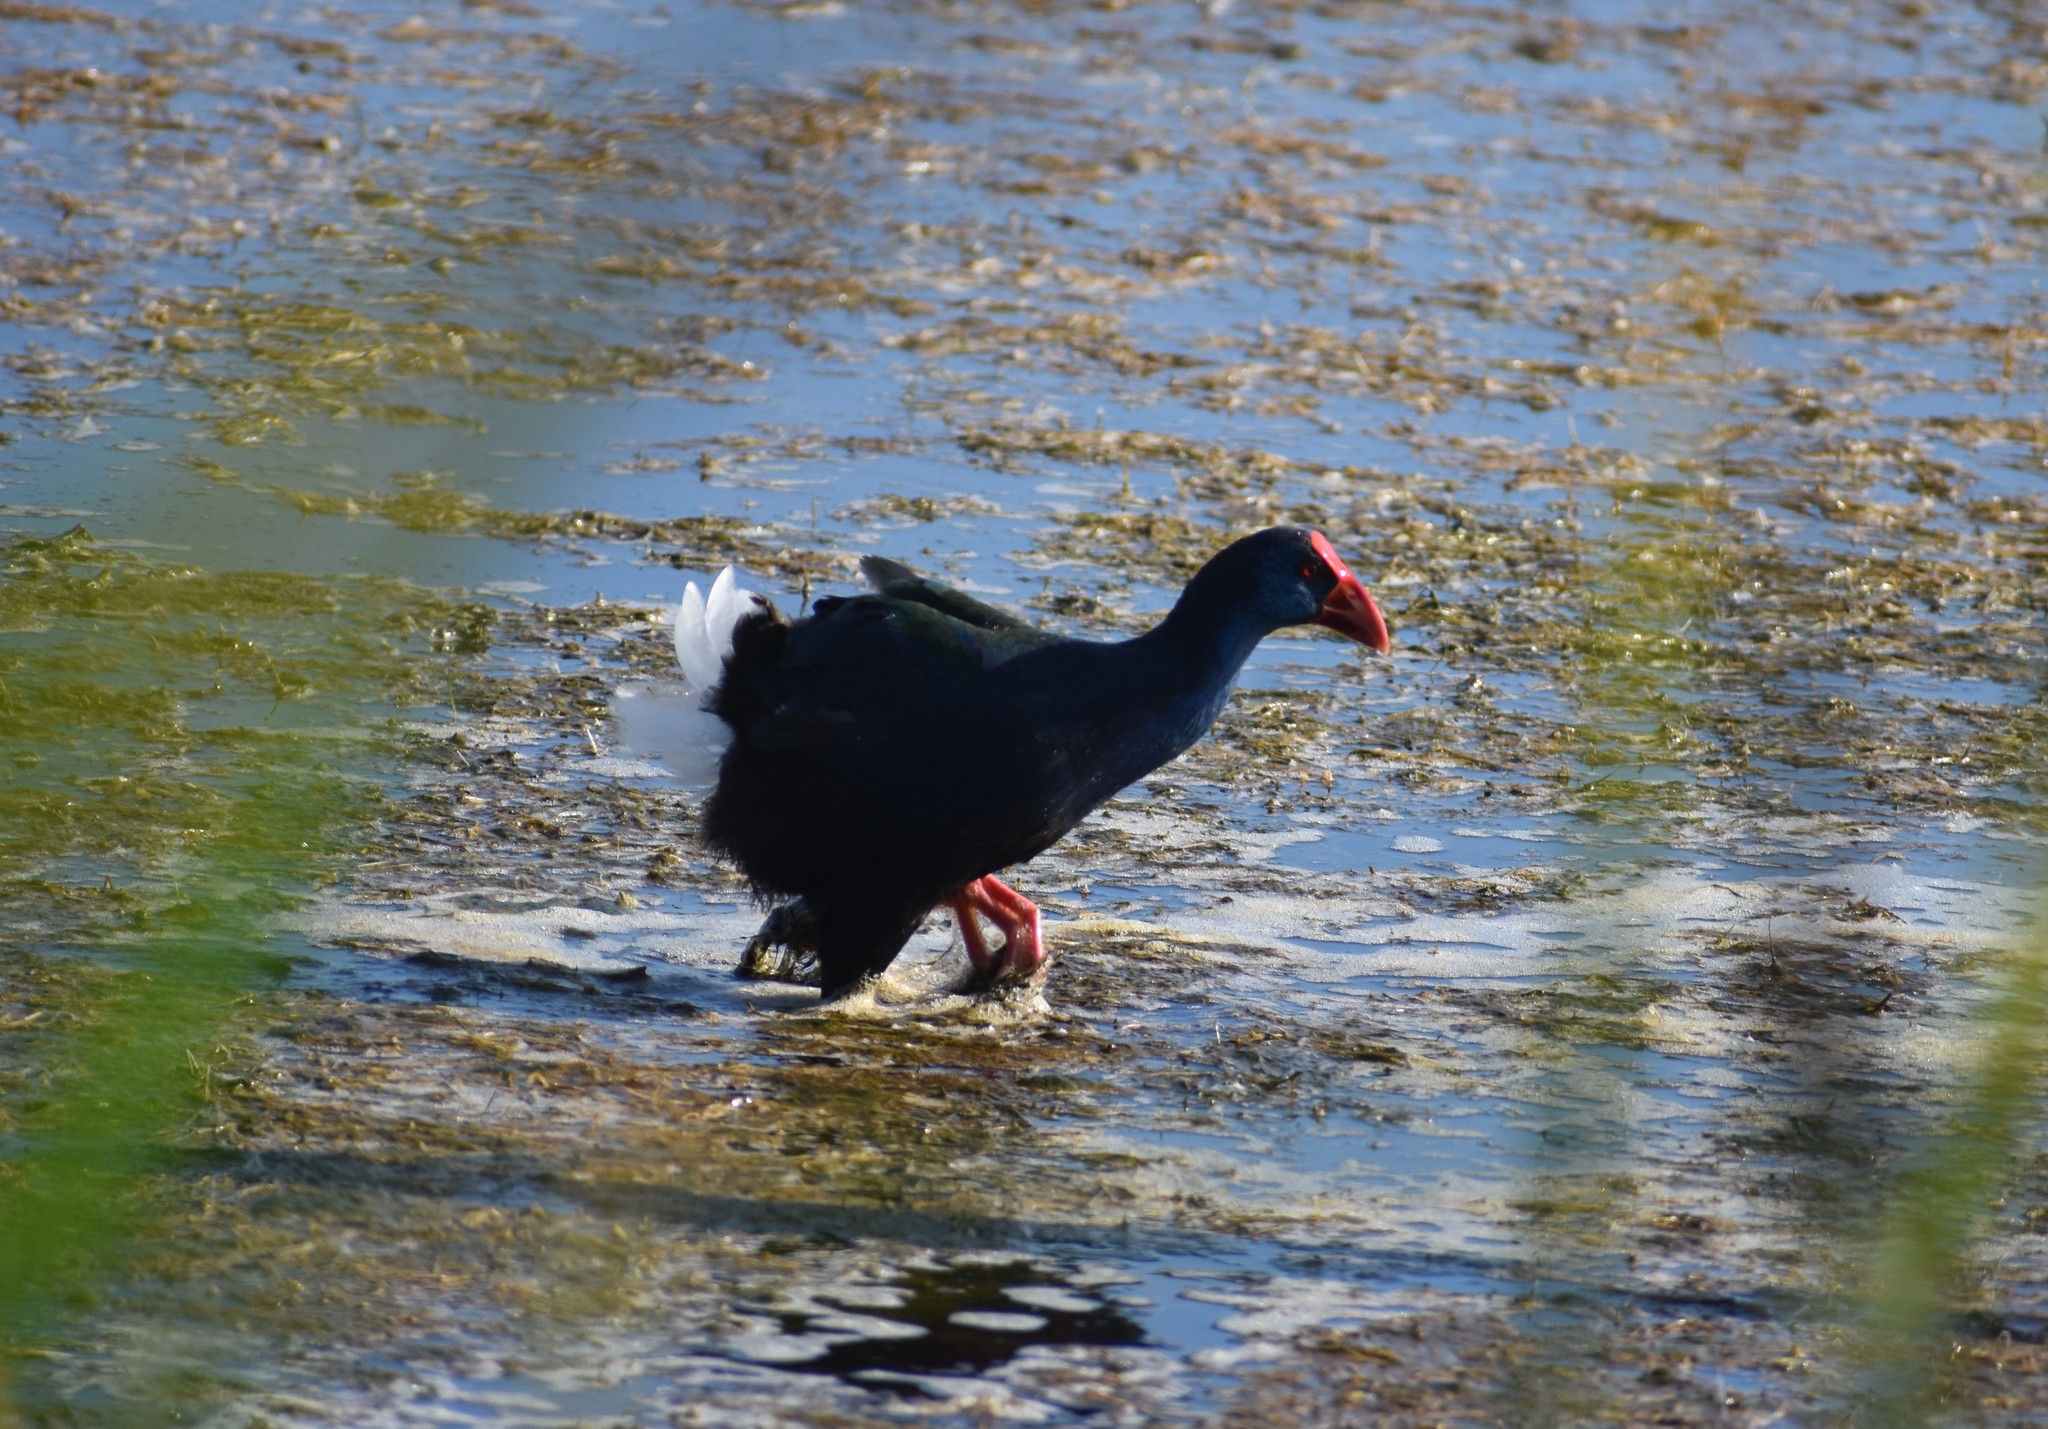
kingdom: Animalia
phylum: Chordata
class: Aves
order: Gruiformes
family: Rallidae
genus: Porphyrio
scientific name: Porphyrio porphyrio
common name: Purple swamphen
